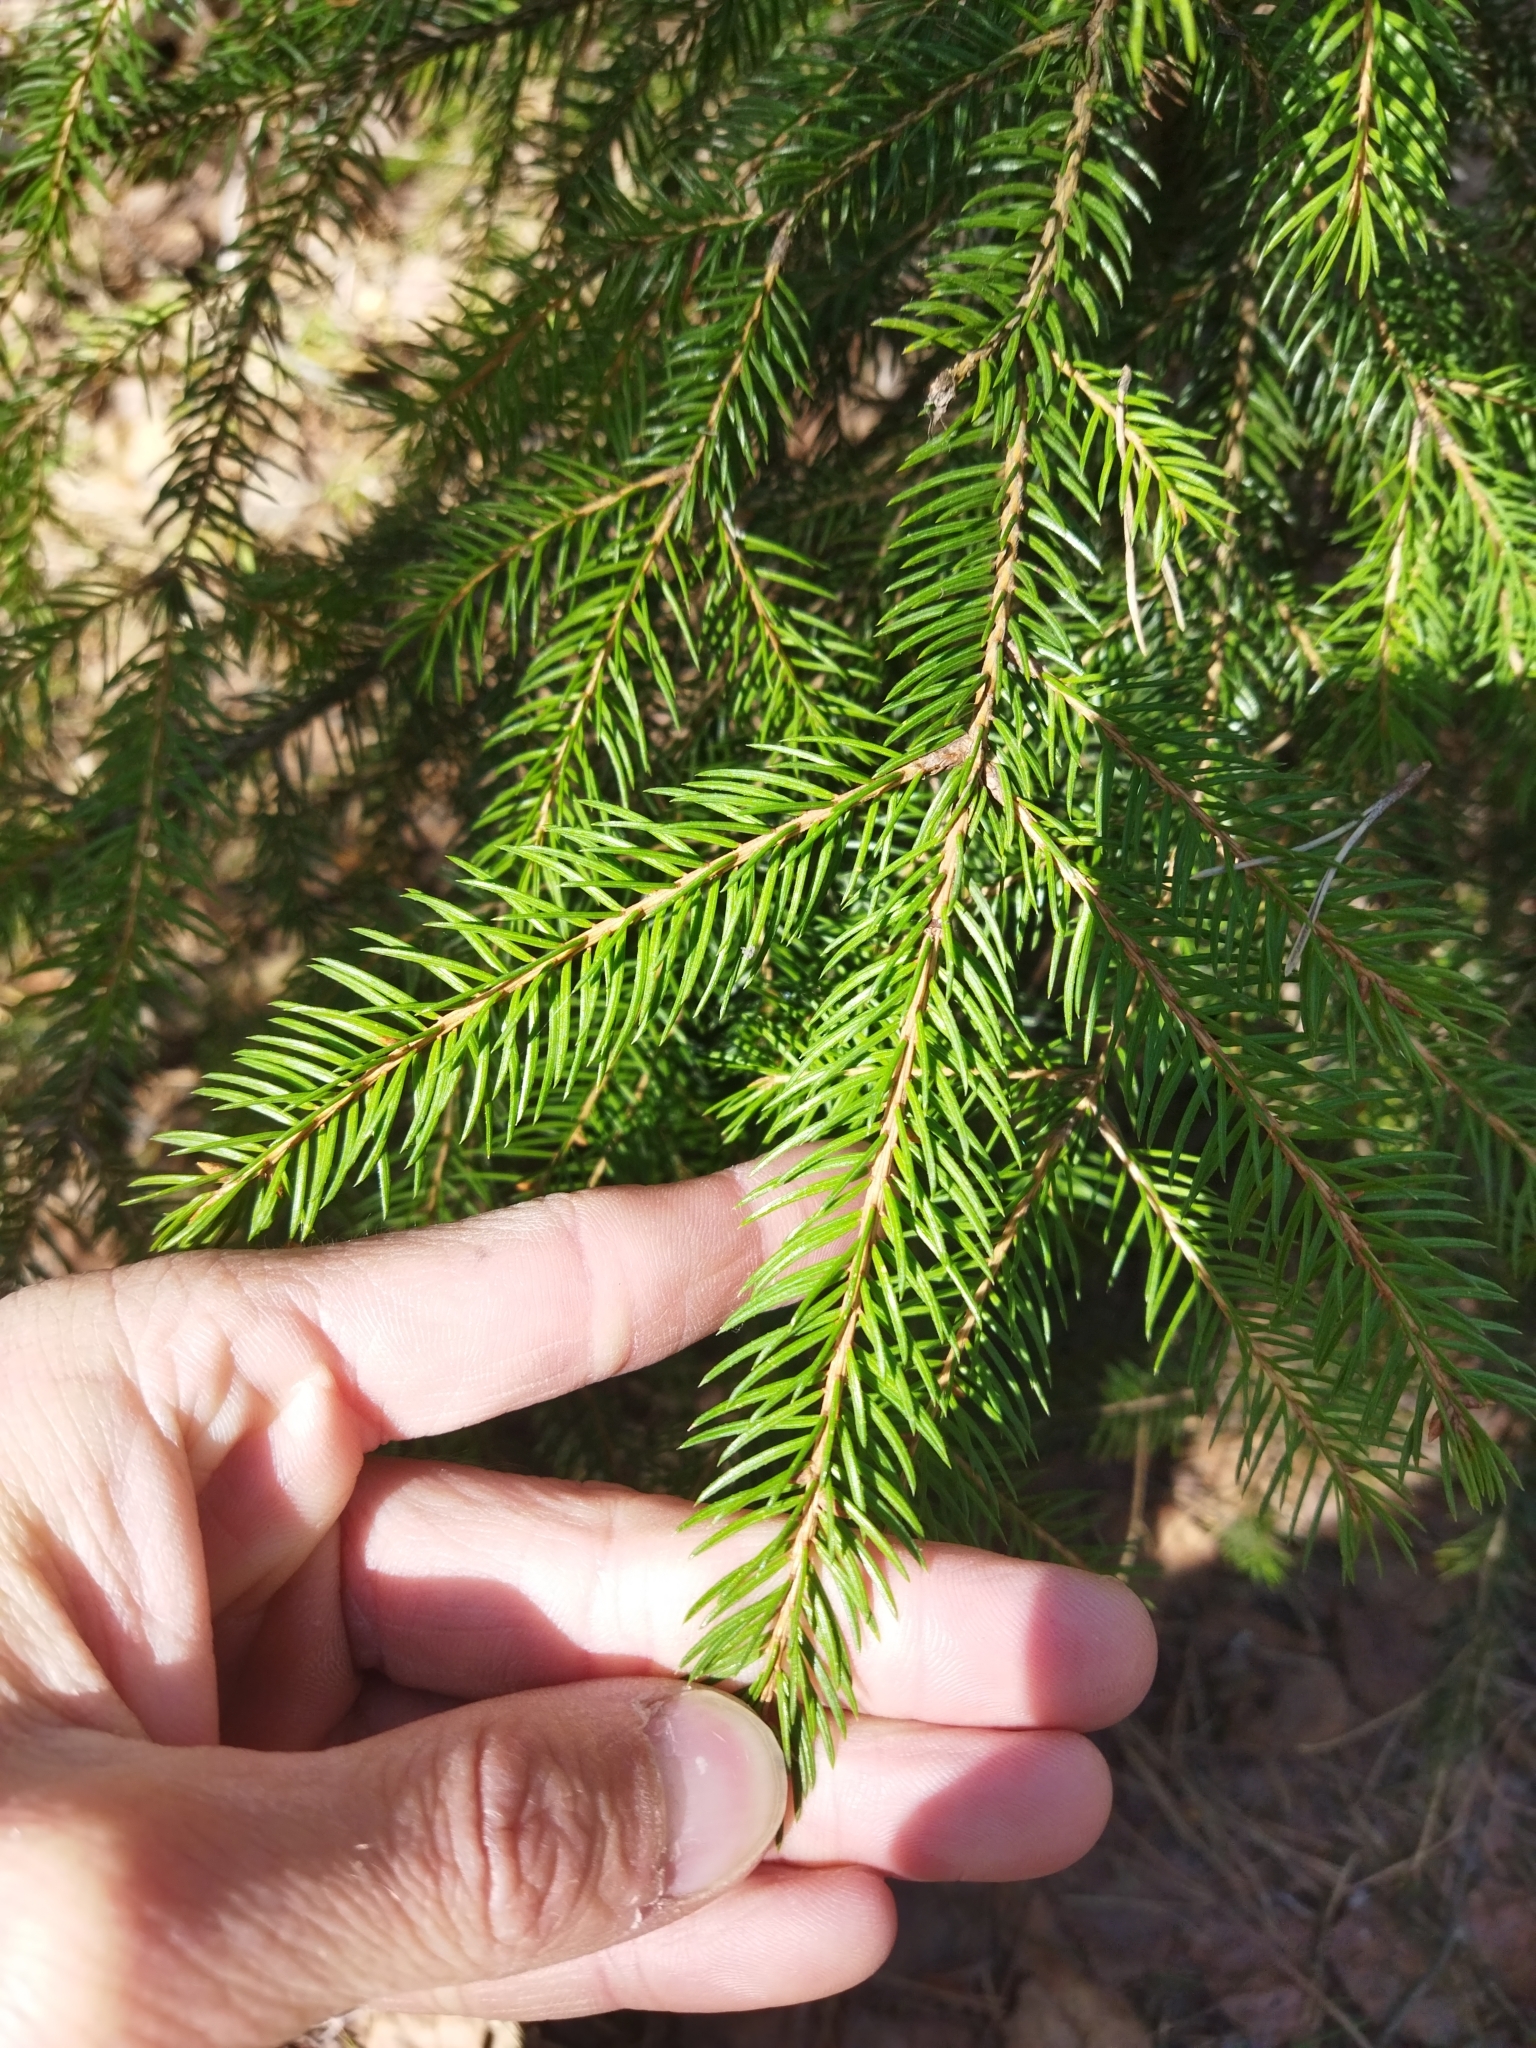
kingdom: Plantae
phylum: Tracheophyta
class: Pinopsida
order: Pinales
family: Pinaceae
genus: Picea
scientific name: Picea abies
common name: Norway spruce
